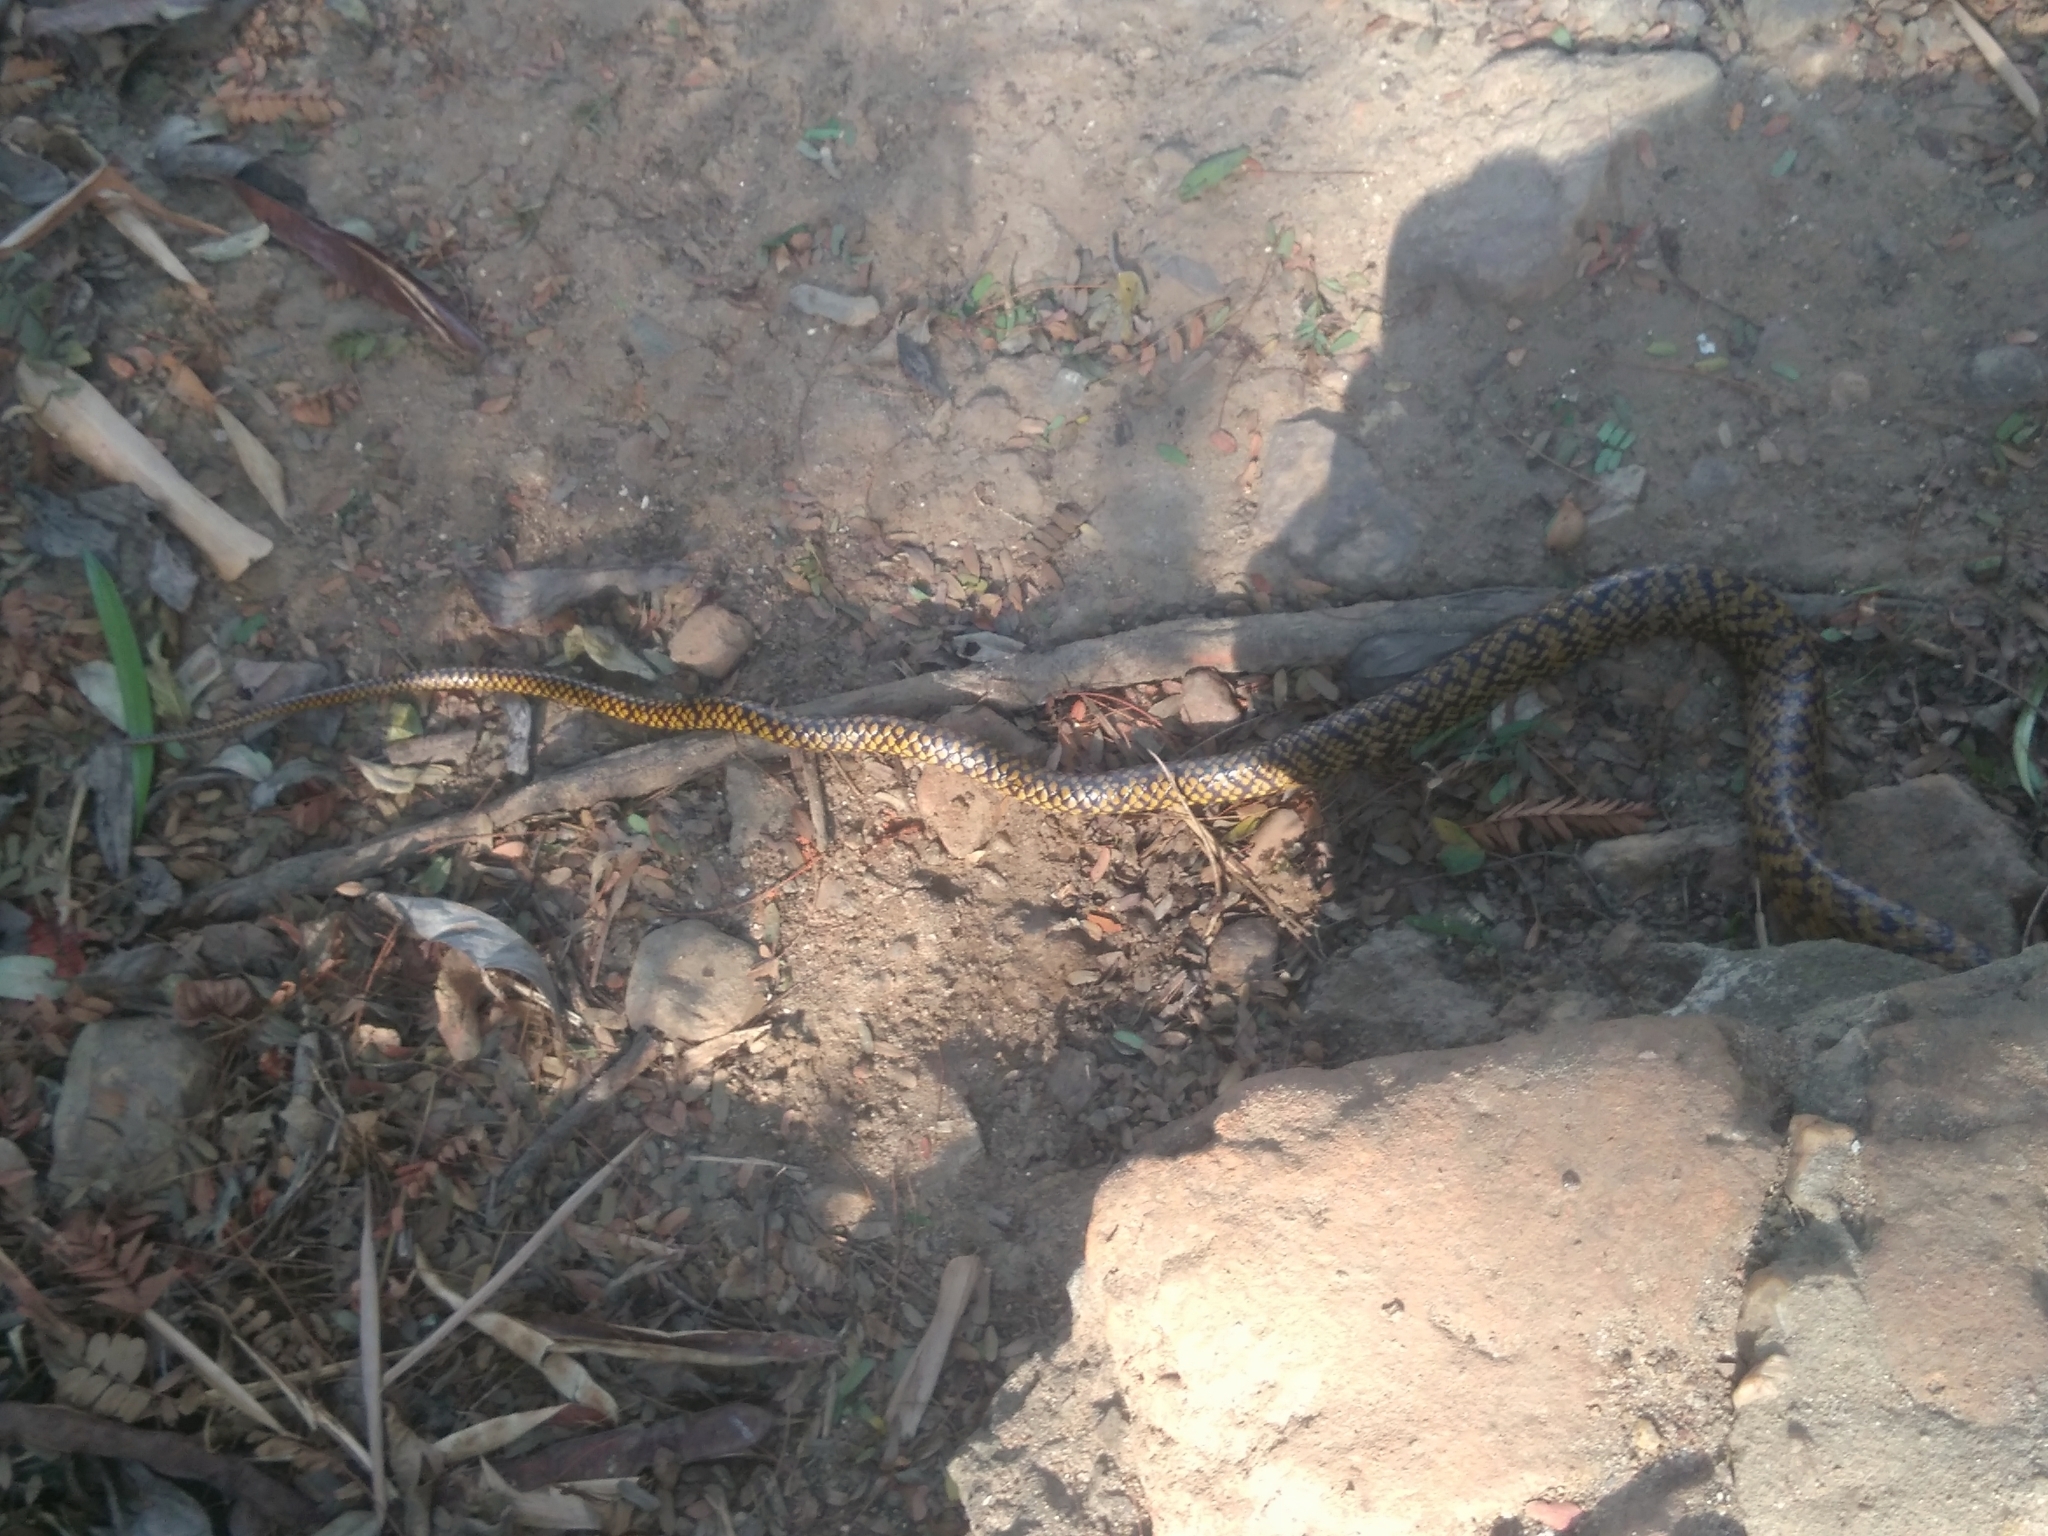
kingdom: Animalia
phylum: Chordata
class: Squamata
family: Colubridae
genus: Ptyas
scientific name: Ptyas mucosa
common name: Oriental ratsnake
